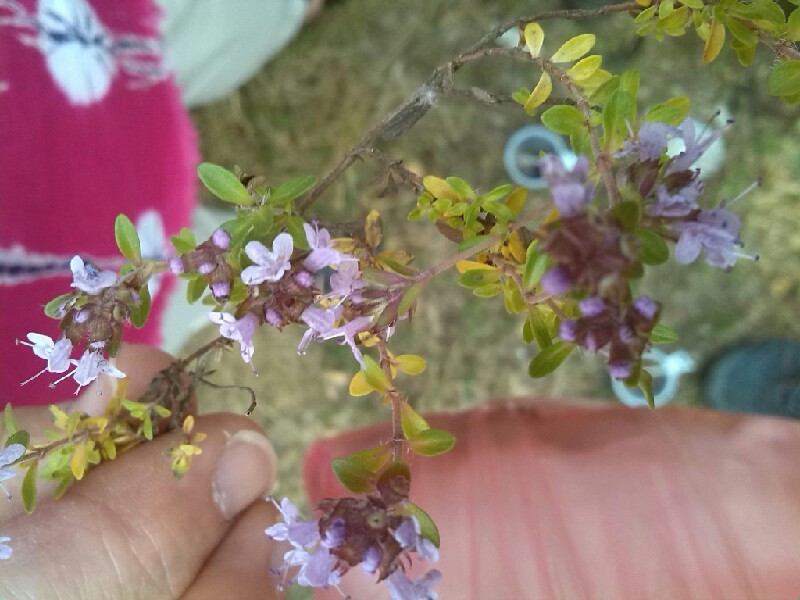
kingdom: Plantae
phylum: Tracheophyta
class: Magnoliopsida
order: Lamiales
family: Lamiaceae
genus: Thymus
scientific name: Thymus serpyllum
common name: Breckland thyme
